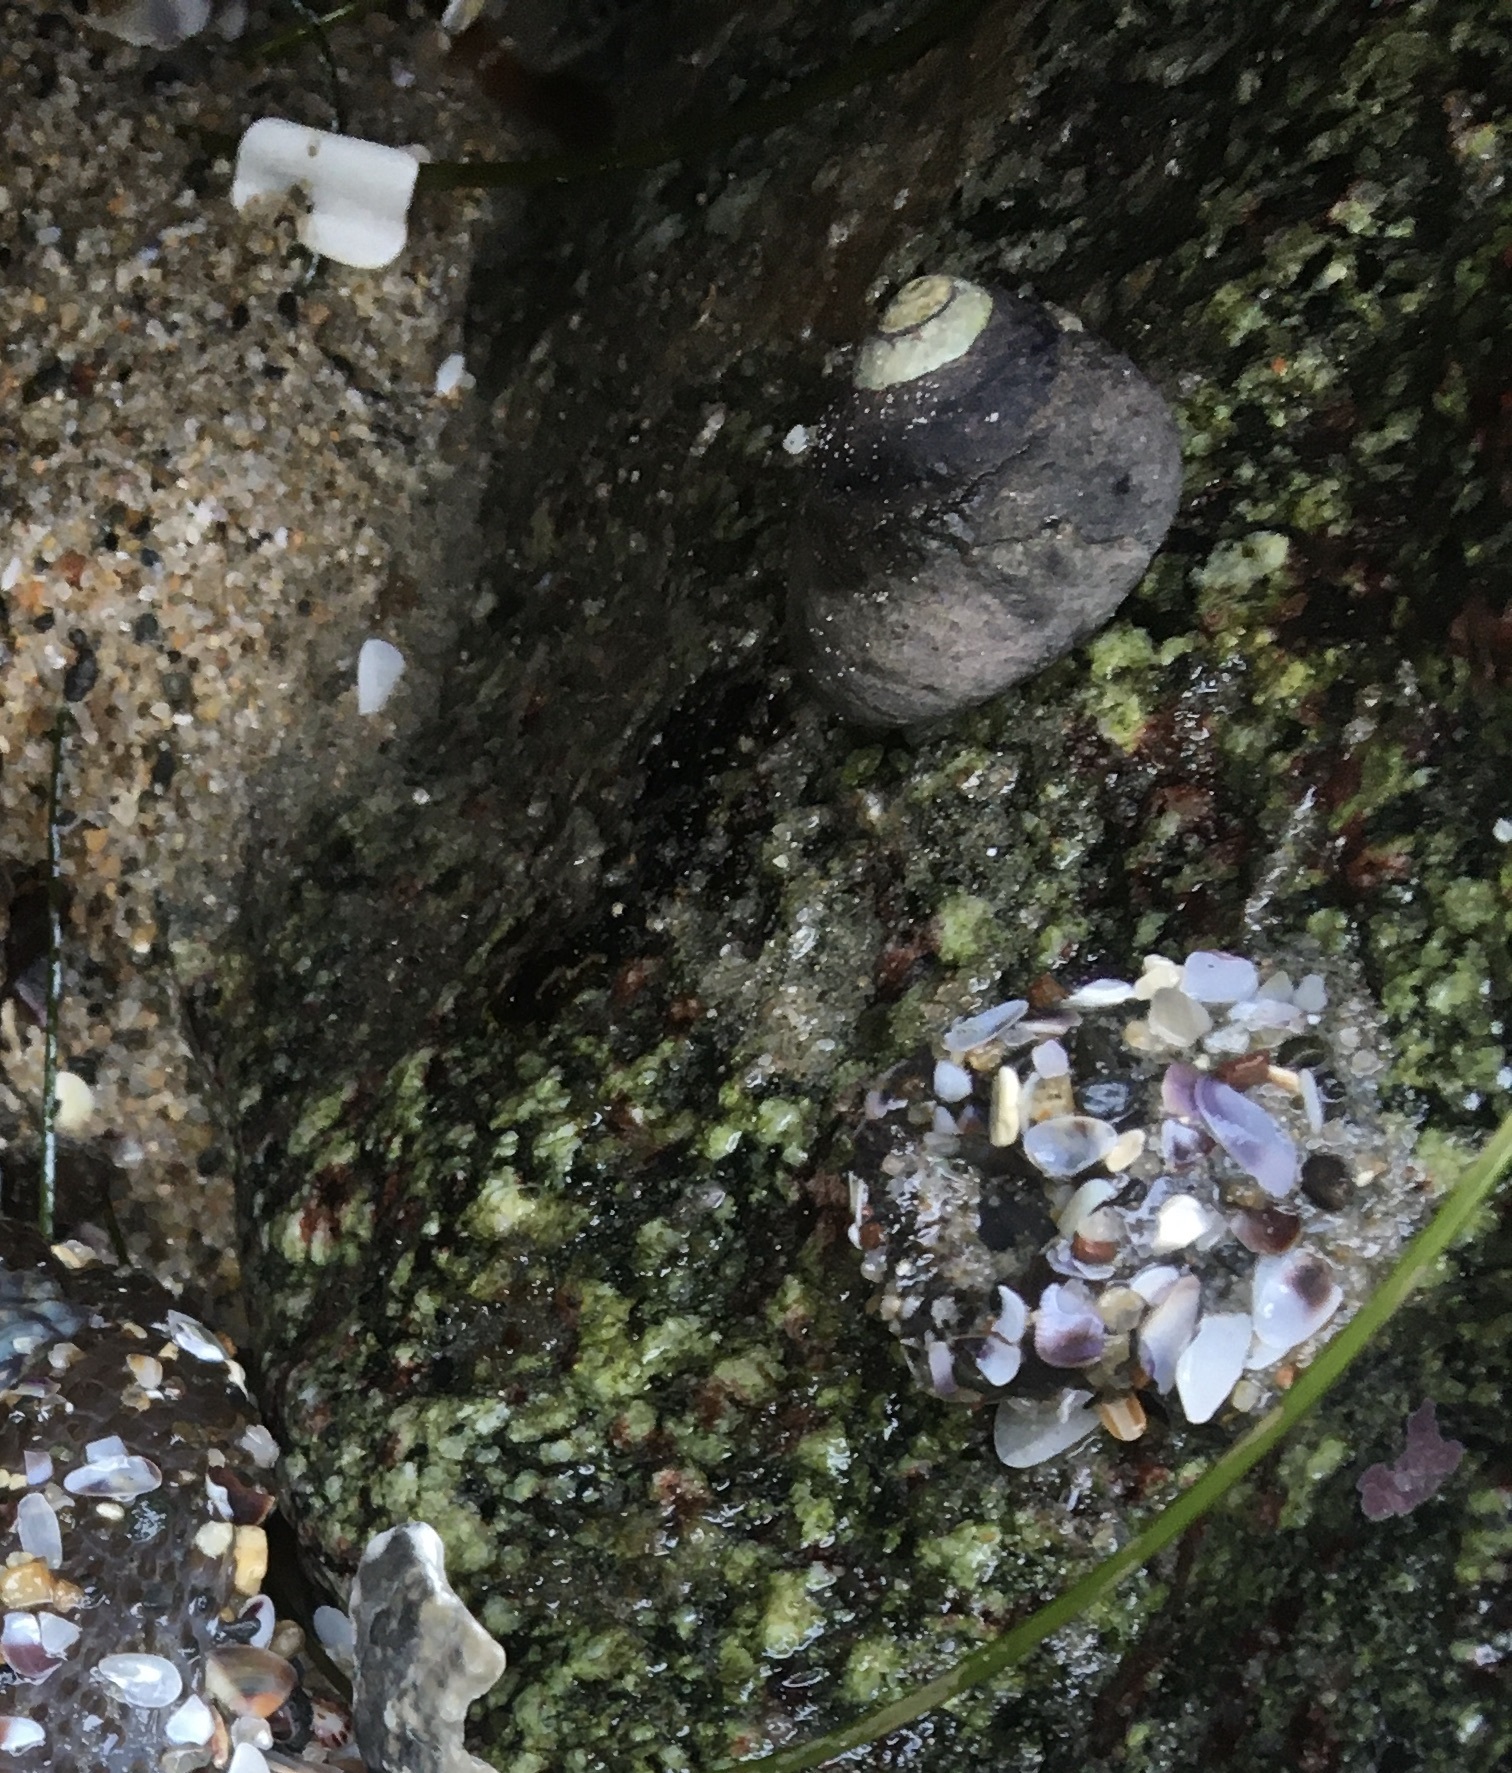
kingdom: Animalia
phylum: Mollusca
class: Gastropoda
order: Trochida
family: Tegulidae
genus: Tegula
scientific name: Tegula funebralis
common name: Black tegula
